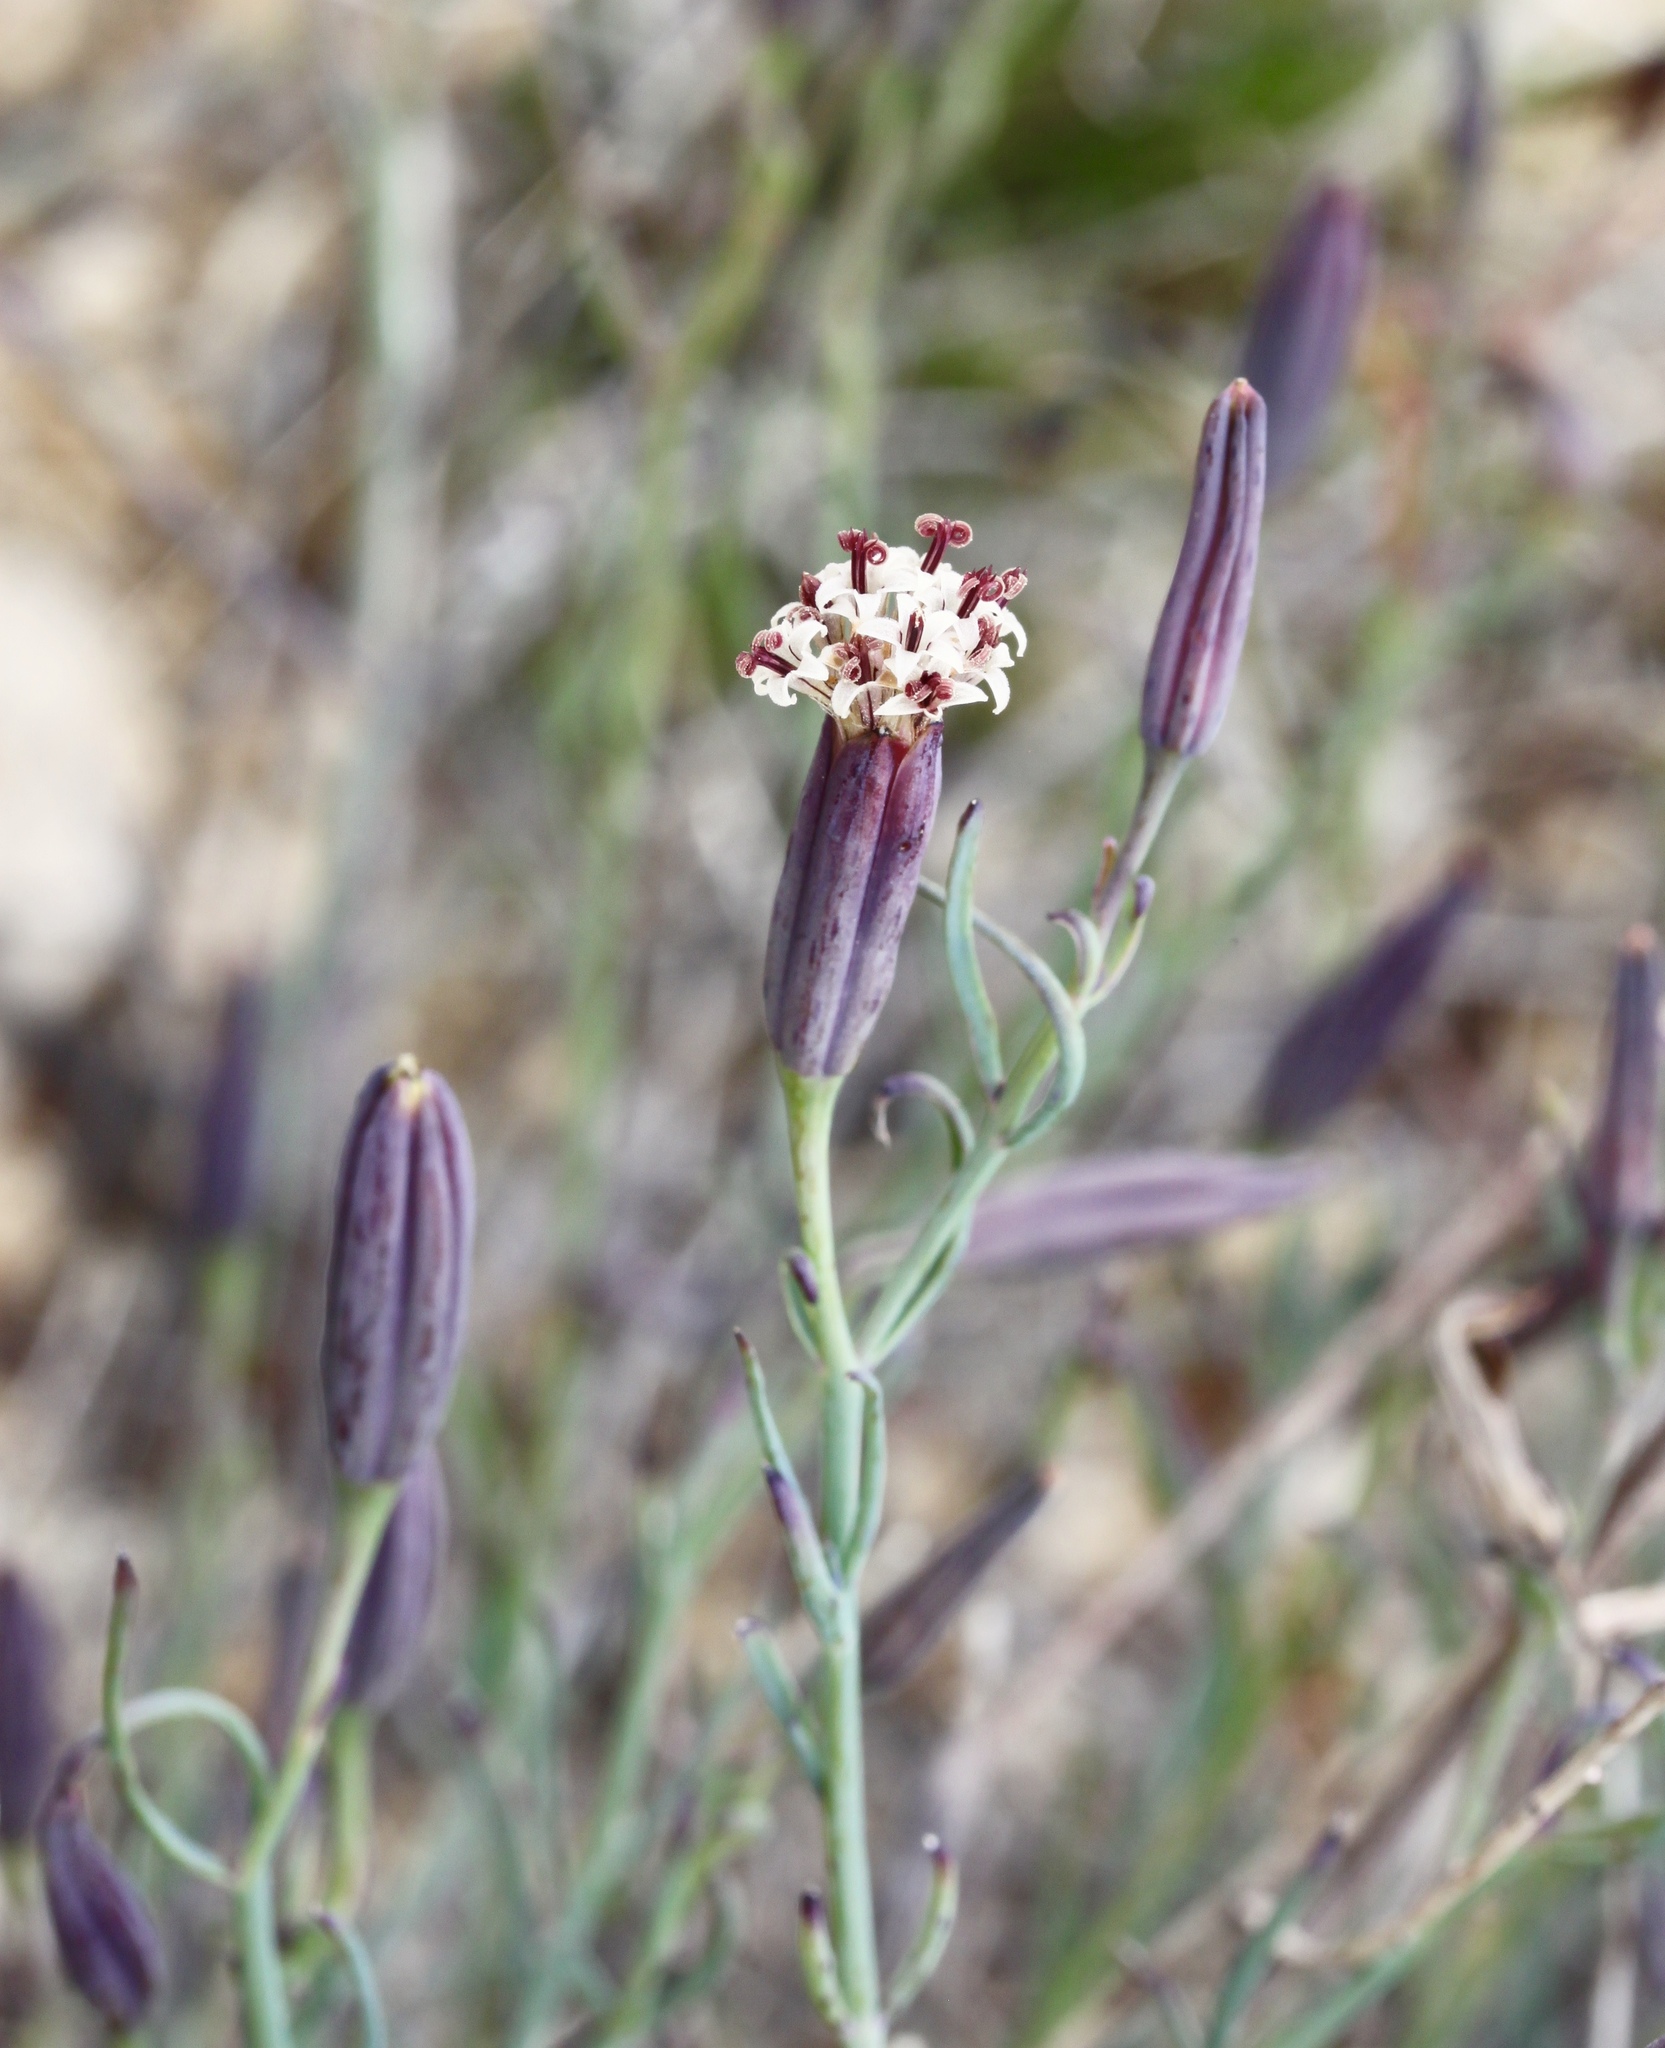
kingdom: Plantae
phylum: Tracheophyta
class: Magnoliopsida
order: Asterales
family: Asteraceae
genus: Porophyllum
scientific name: Porophyllum gracile
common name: Odora
